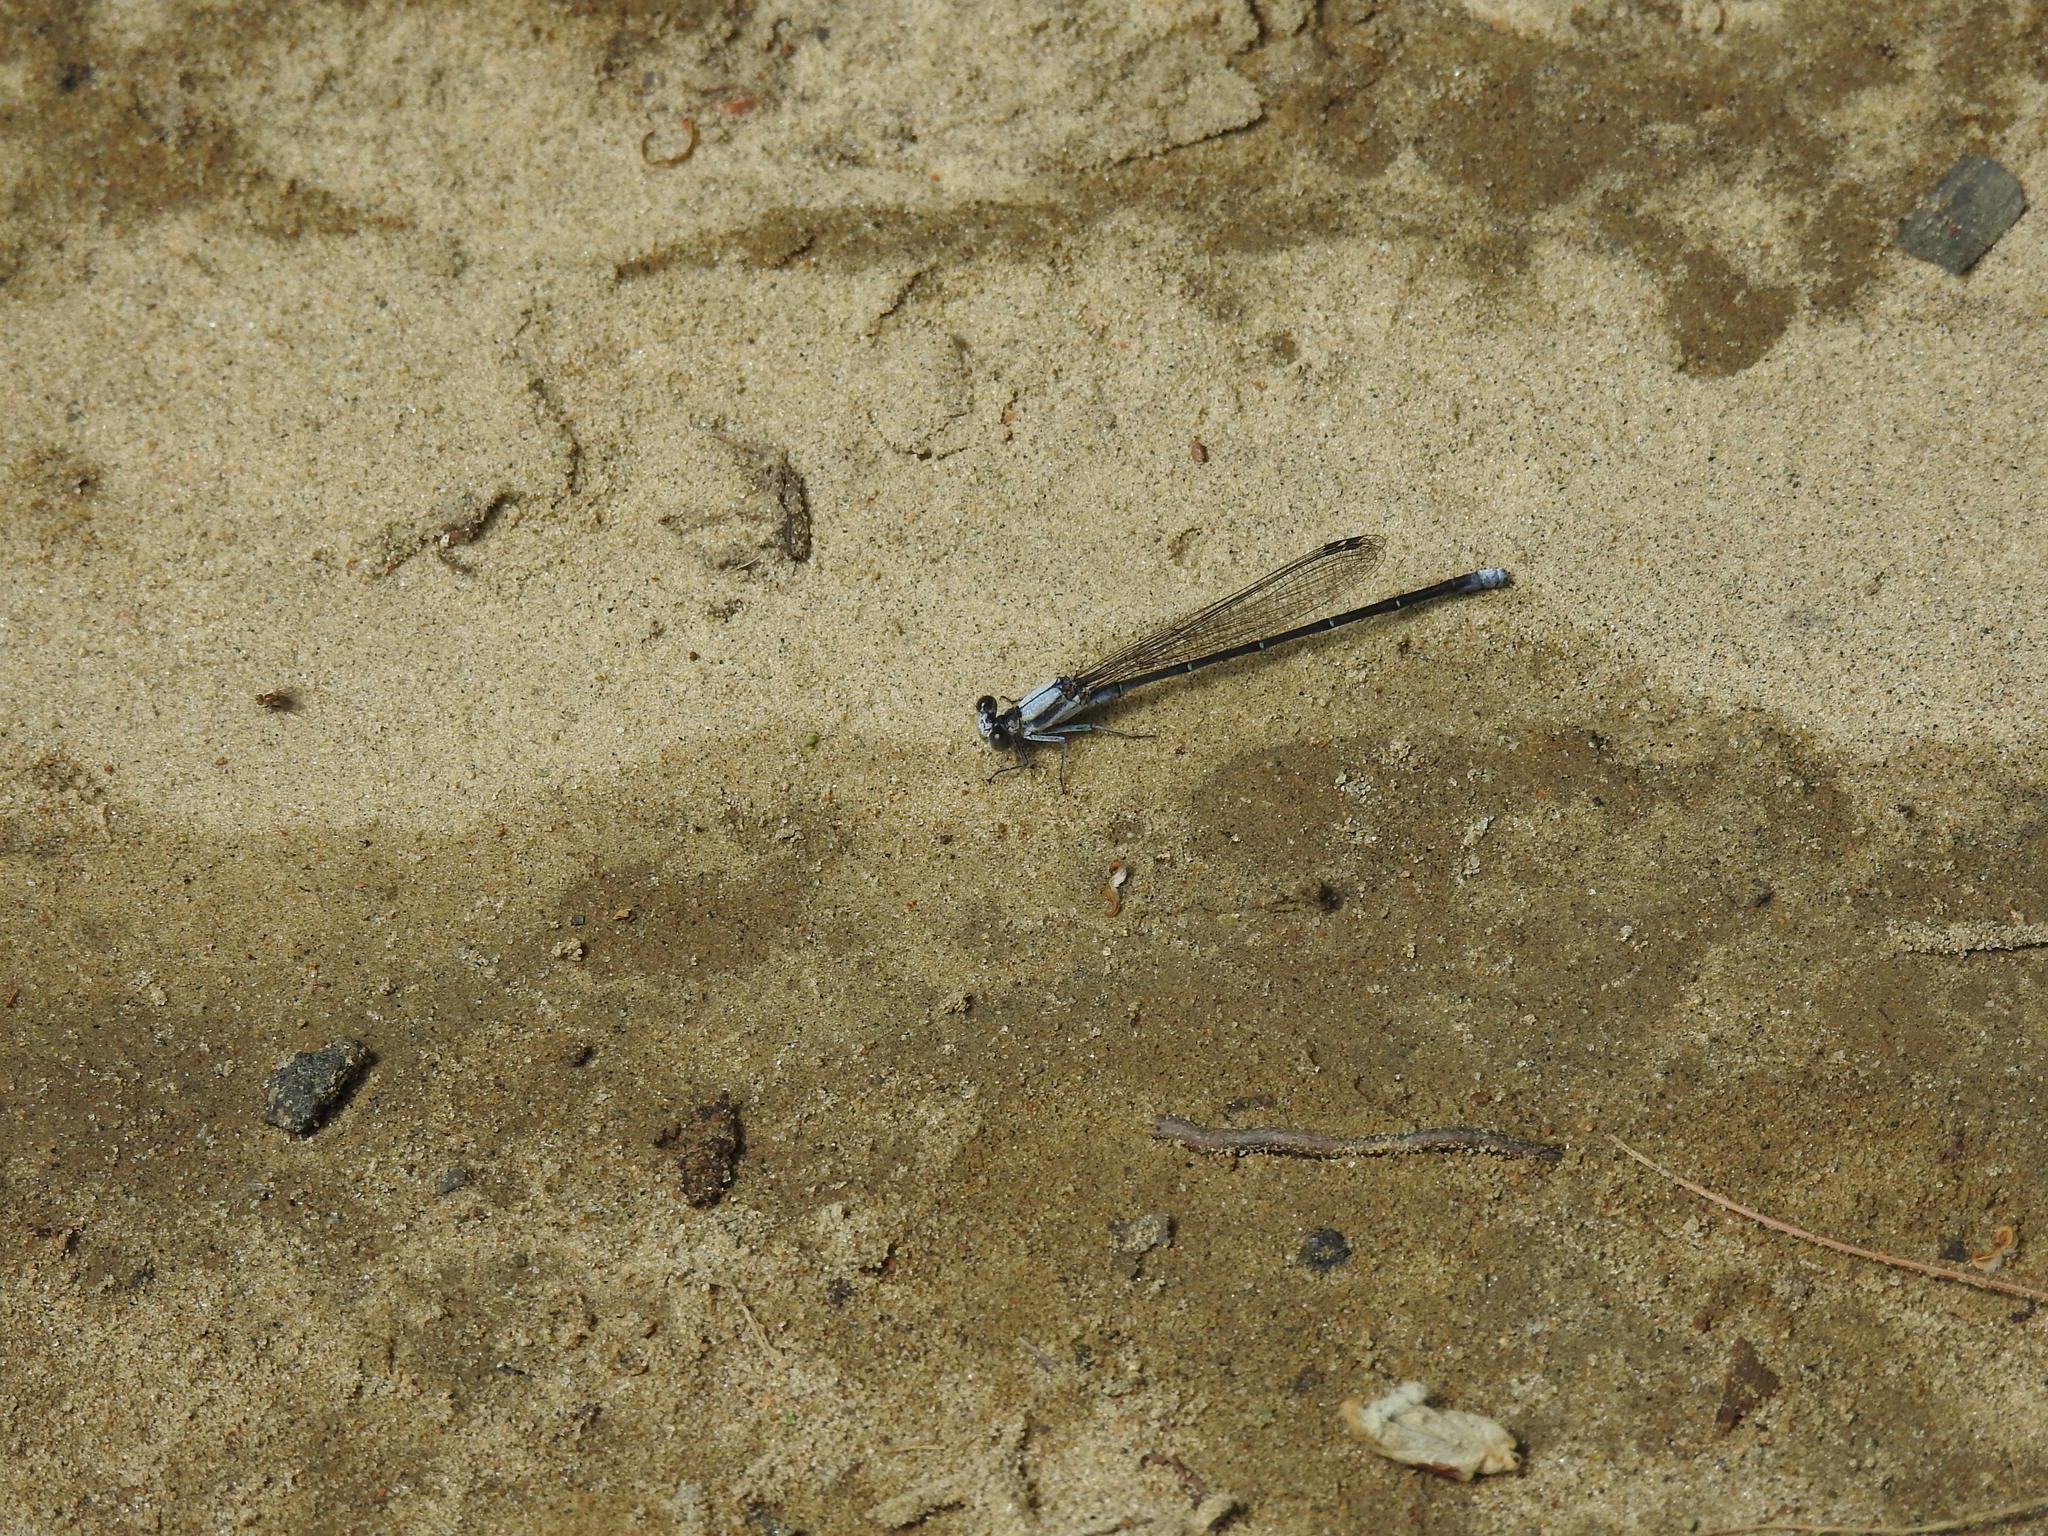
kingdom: Animalia
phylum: Arthropoda
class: Insecta
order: Odonata
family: Coenagrionidae
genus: Argia
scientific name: Argia moesta
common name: Powdered dancer
